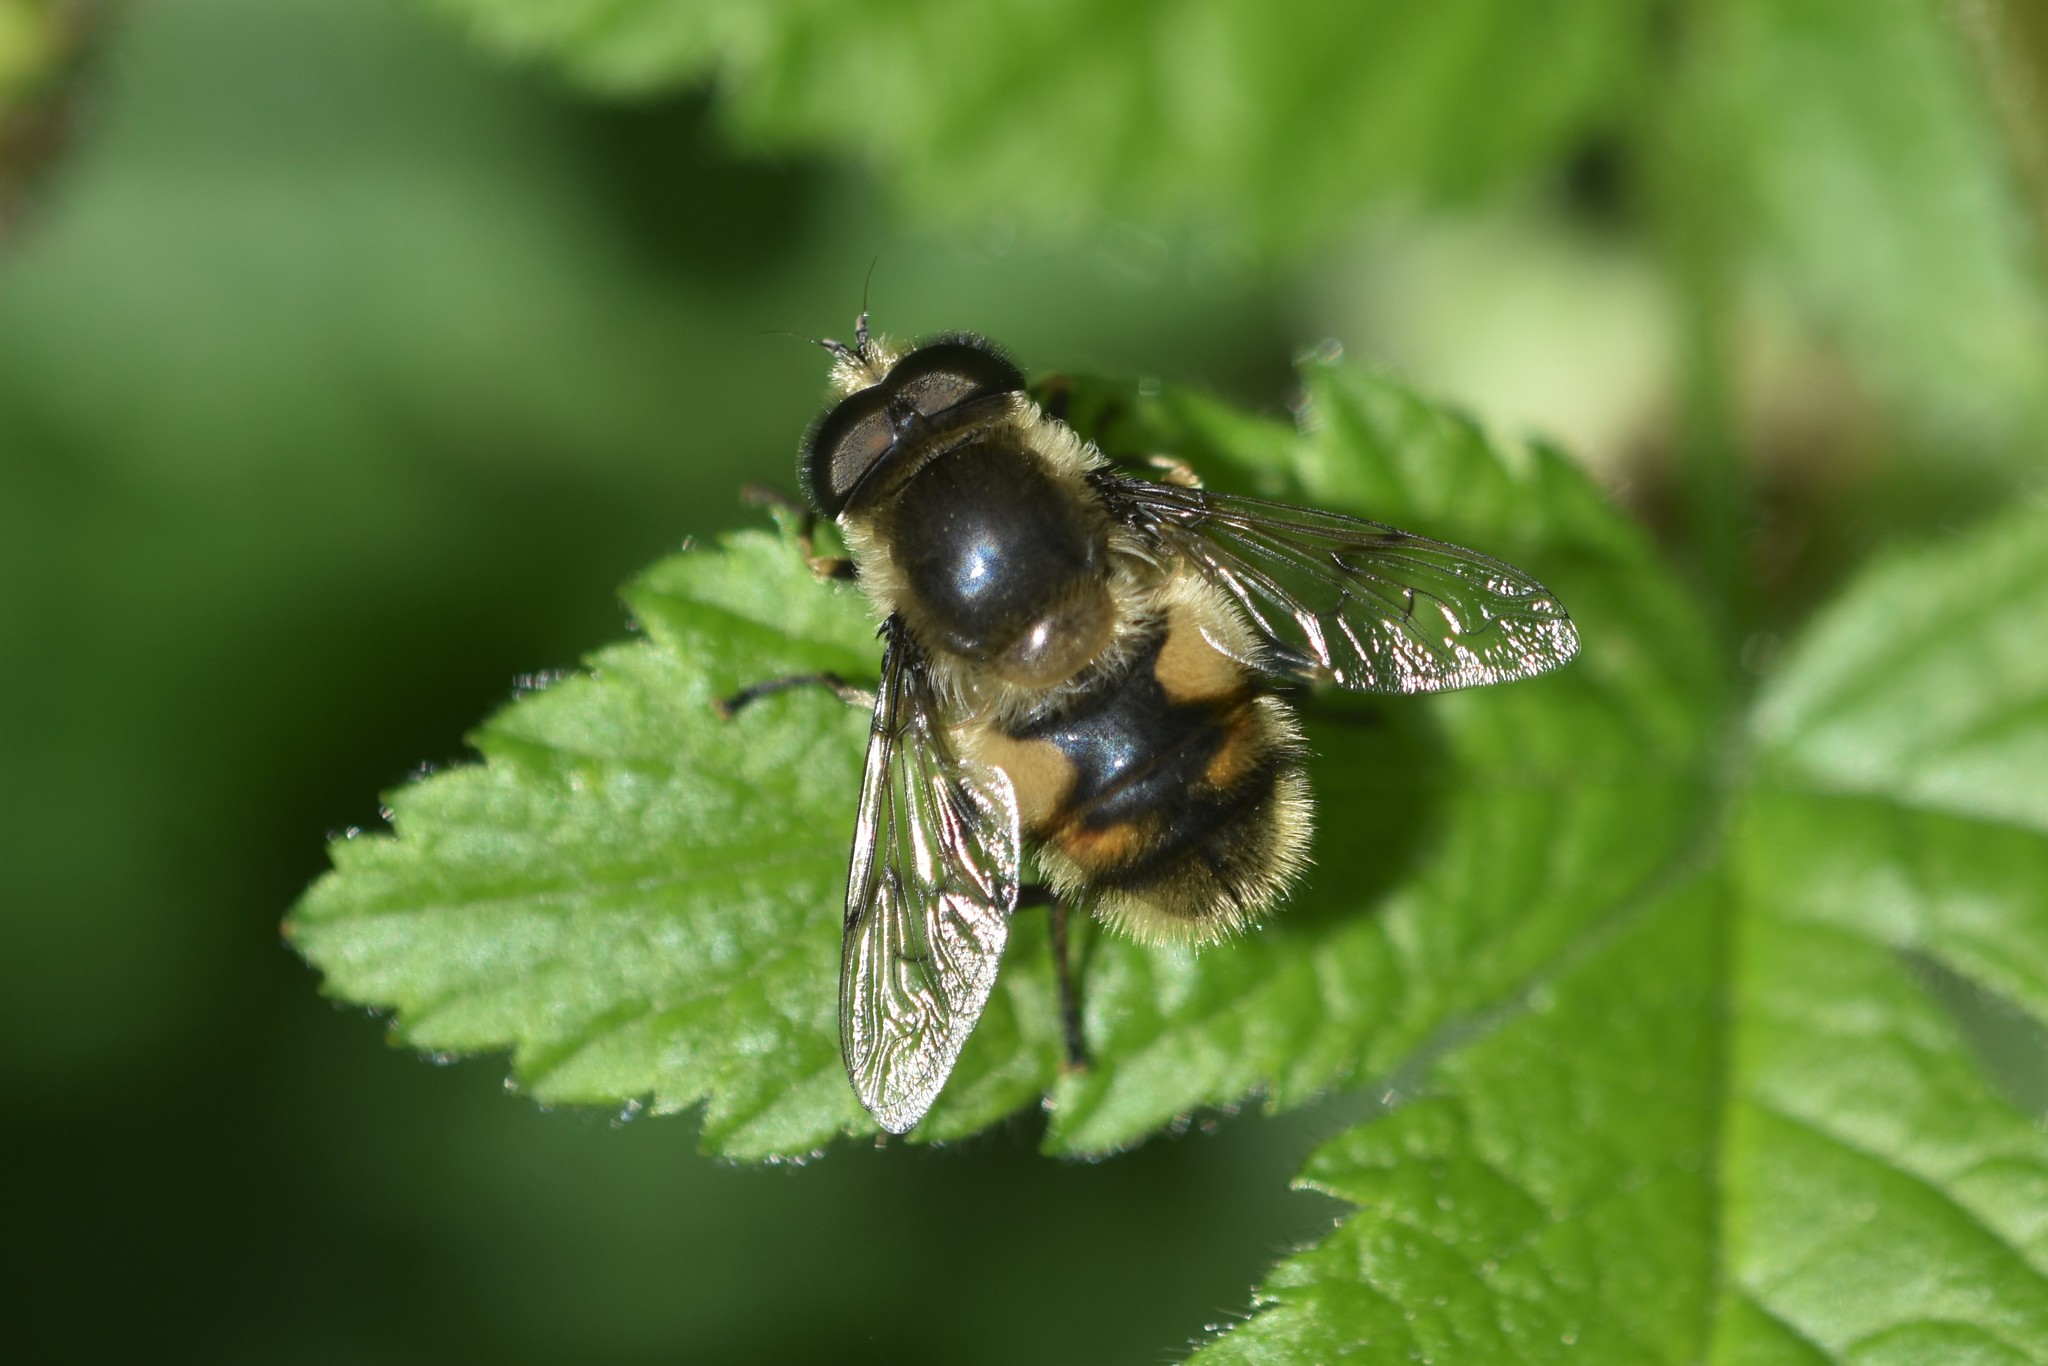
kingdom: Animalia
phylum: Arthropoda
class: Insecta
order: Diptera
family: Syrphidae
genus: Eristalis
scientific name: Eristalis anthophorina
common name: Orange-spotted drone fly
